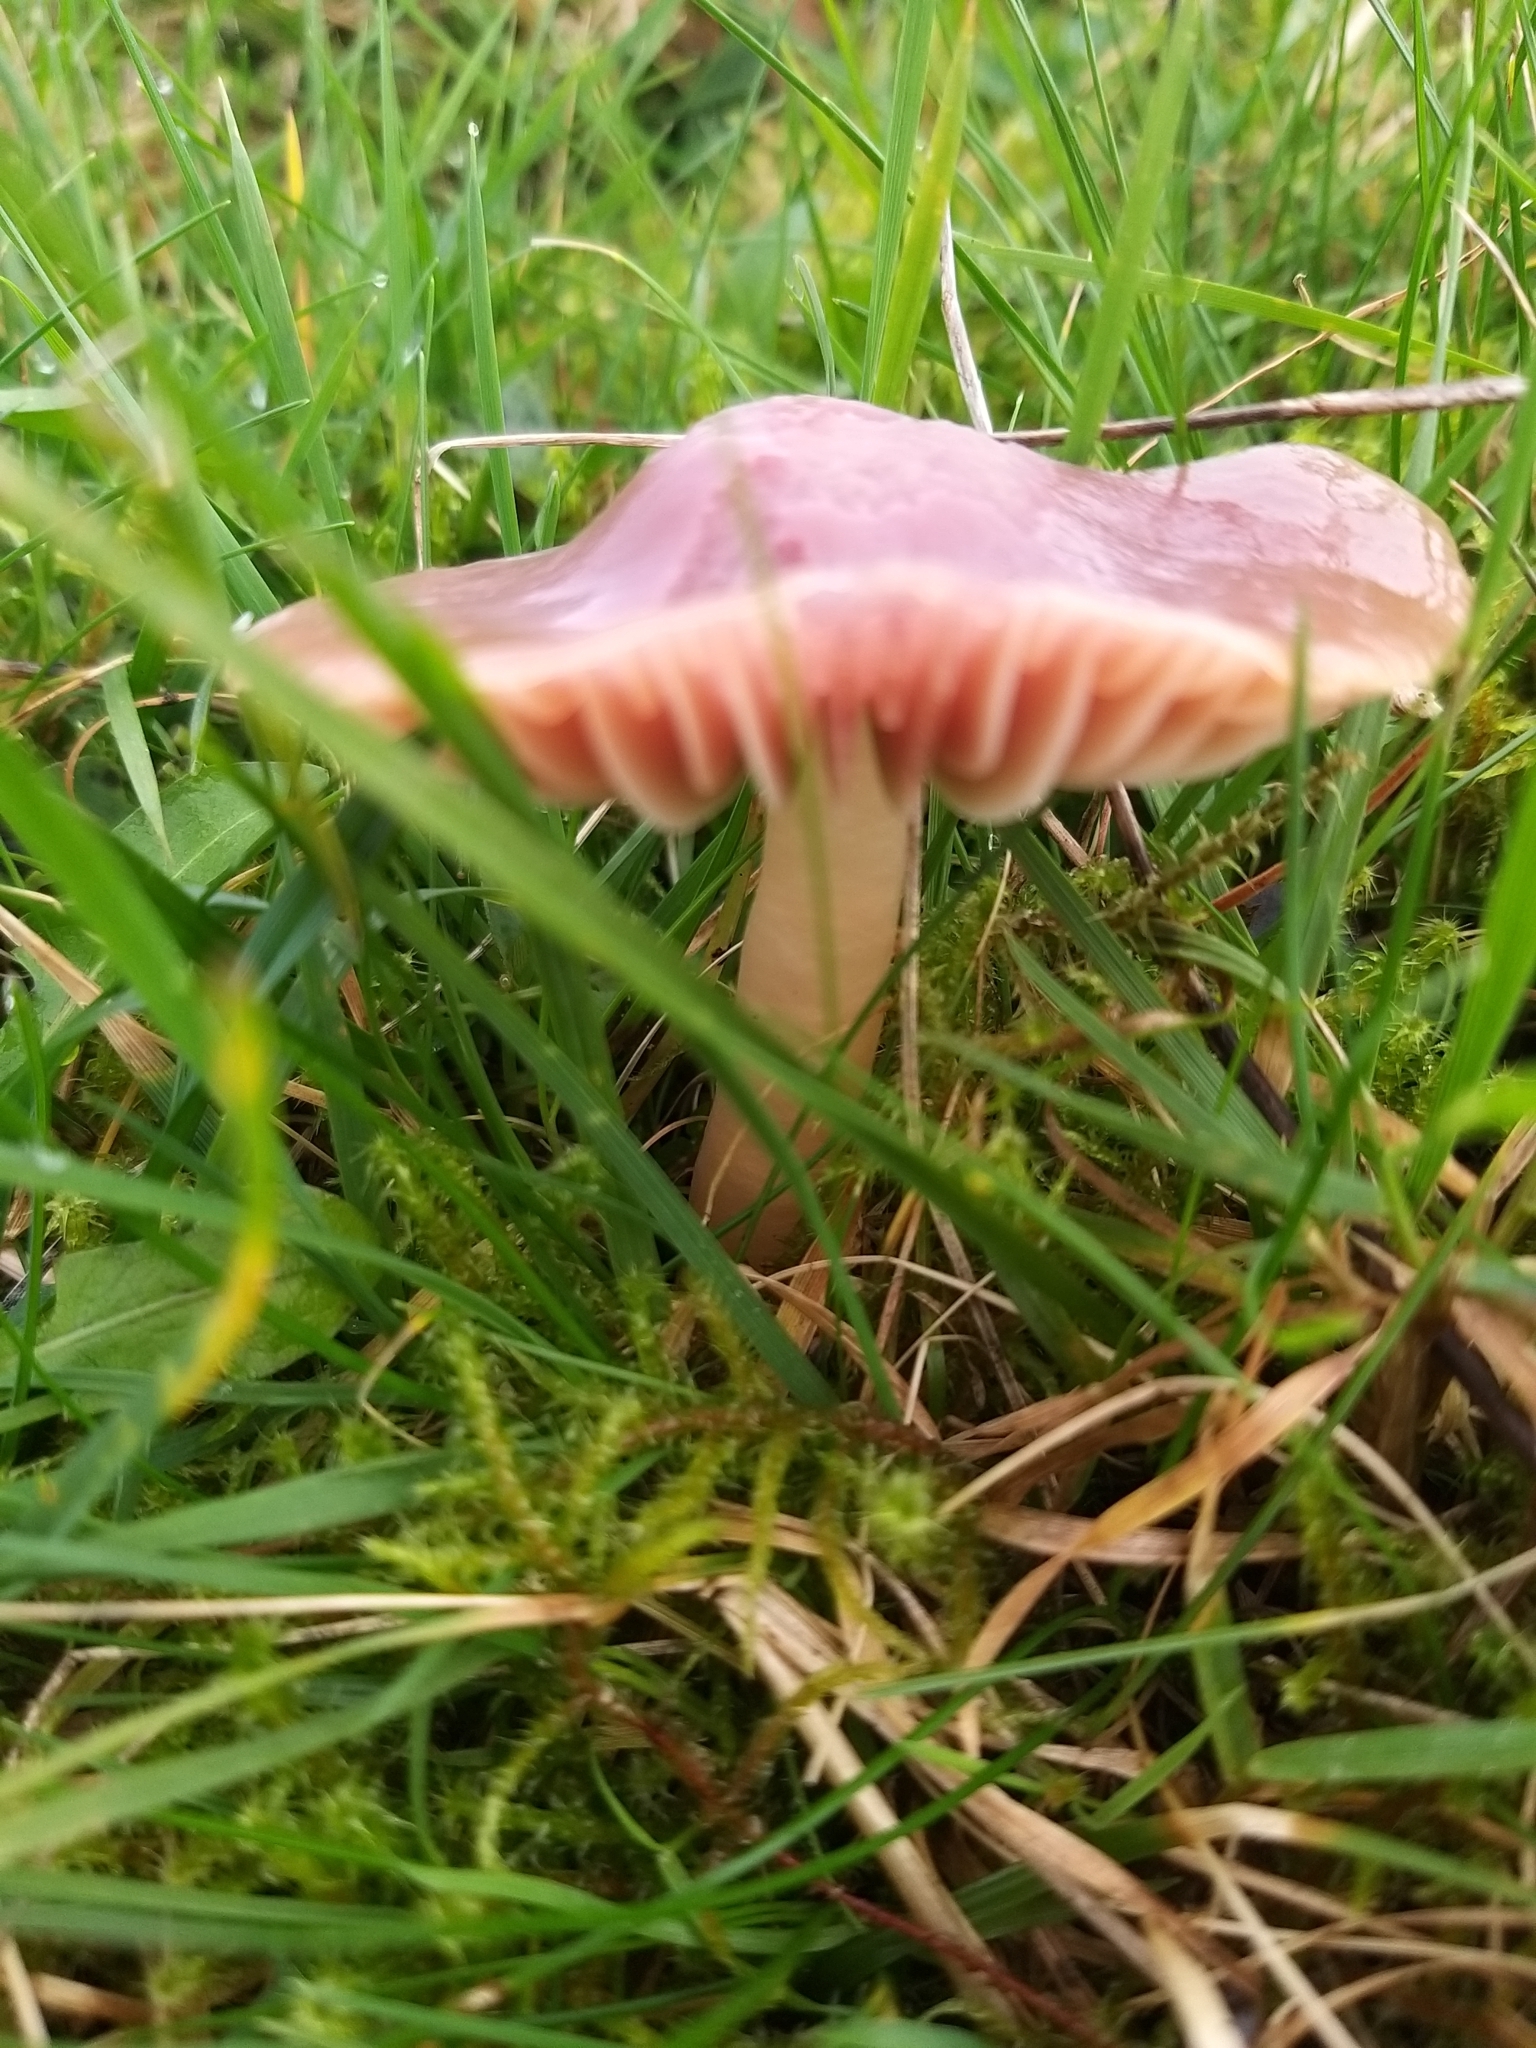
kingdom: Fungi
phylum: Basidiomycota
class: Agaricomycetes
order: Agaricales
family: Hygrophoraceae
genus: Gliophorus
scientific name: Gliophorus reginae
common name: Jubilee waxcap
